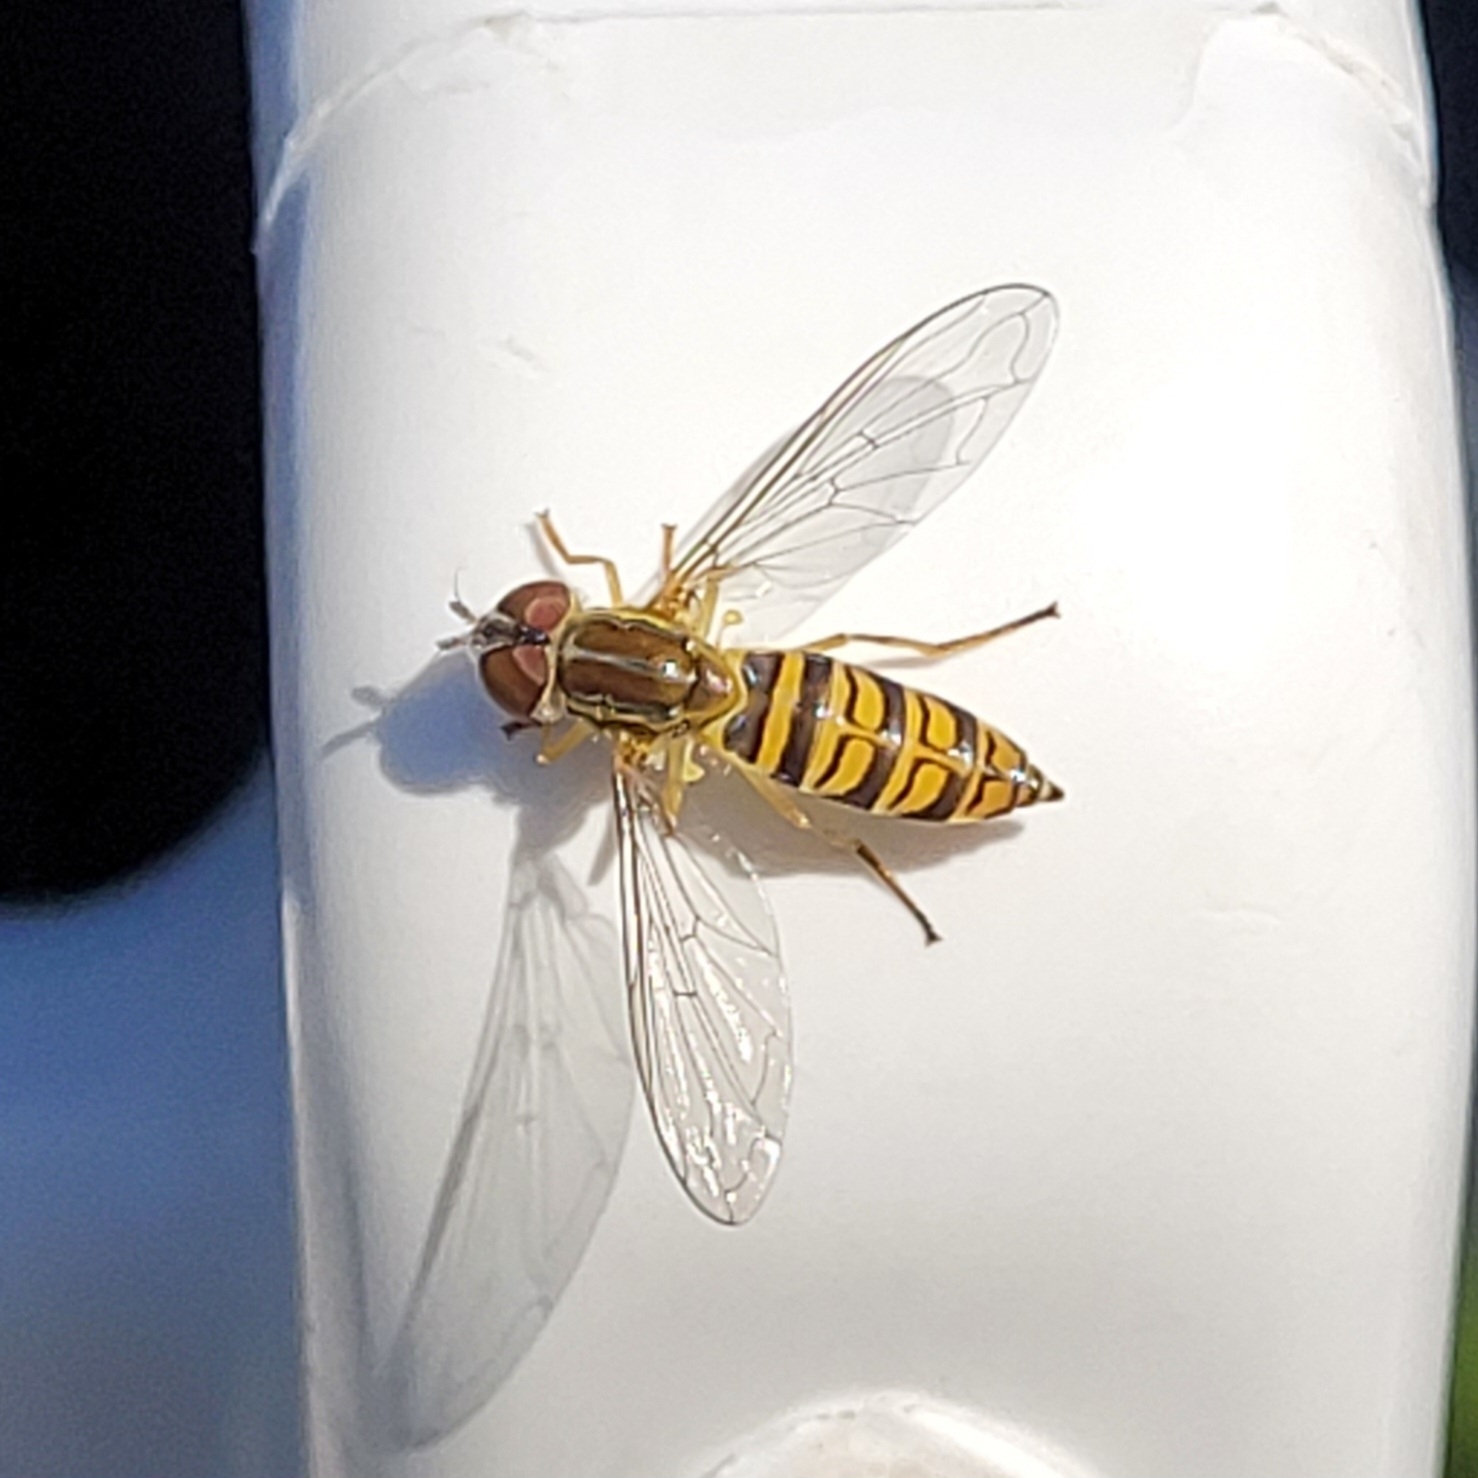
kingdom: Animalia
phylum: Arthropoda
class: Insecta
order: Diptera
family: Syrphidae
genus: Toxomerus
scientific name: Toxomerus politus
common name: Maize calligrapher
